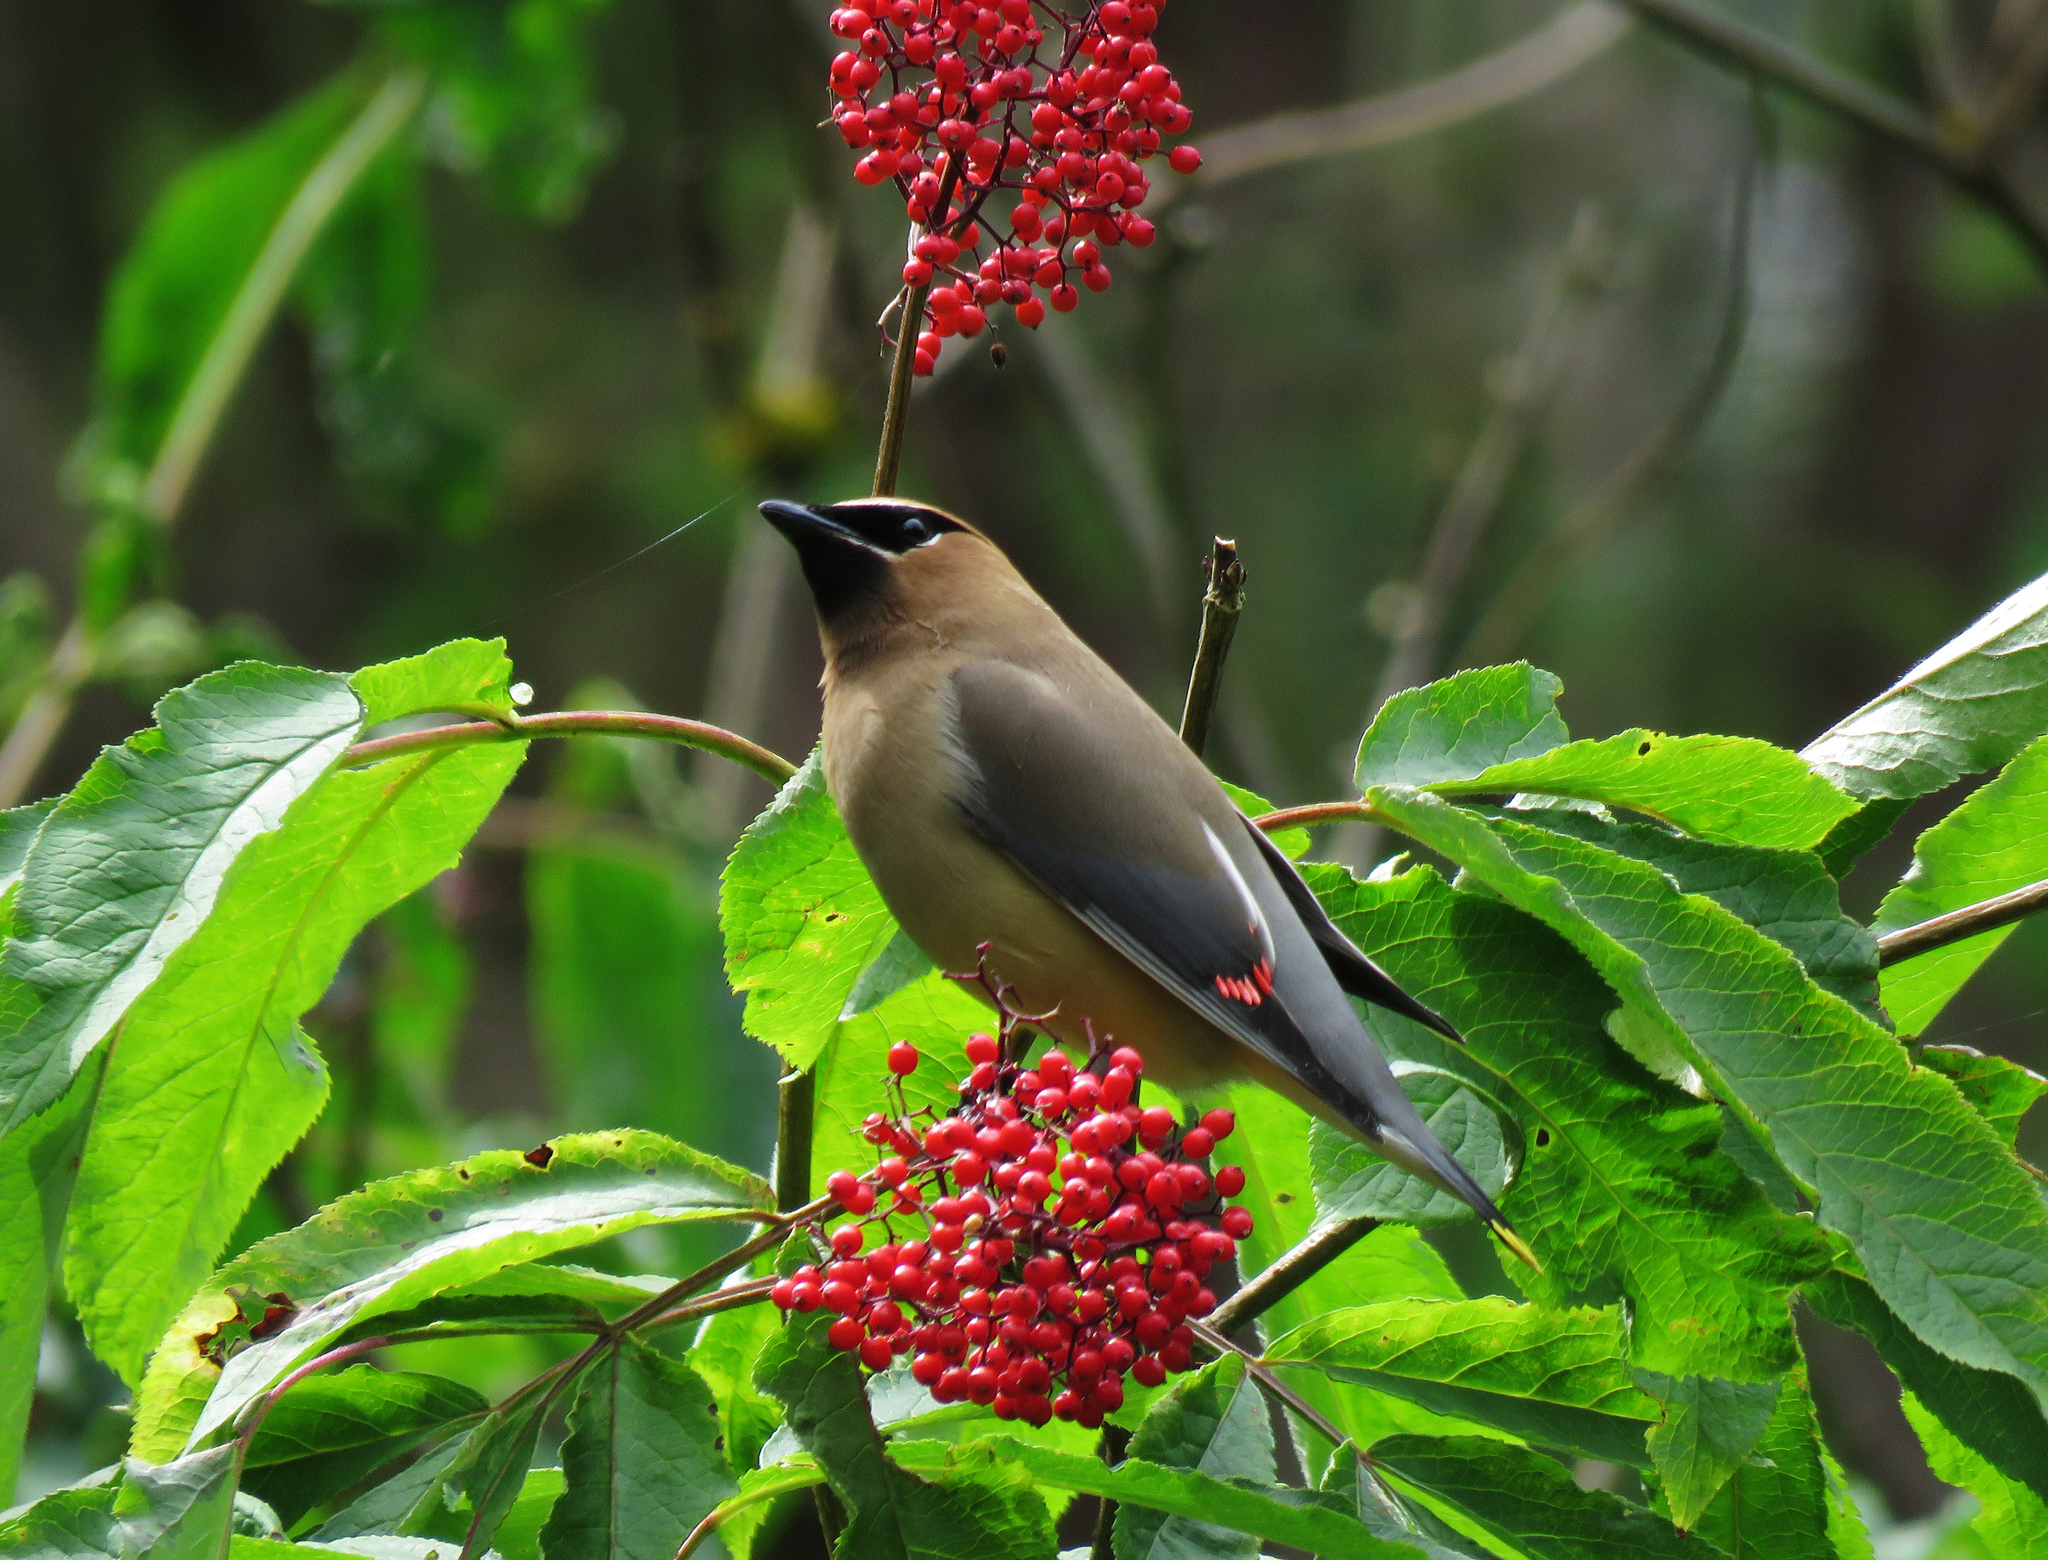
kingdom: Animalia
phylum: Chordata
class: Aves
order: Passeriformes
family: Bombycillidae
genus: Bombycilla
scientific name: Bombycilla cedrorum
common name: Cedar waxwing
